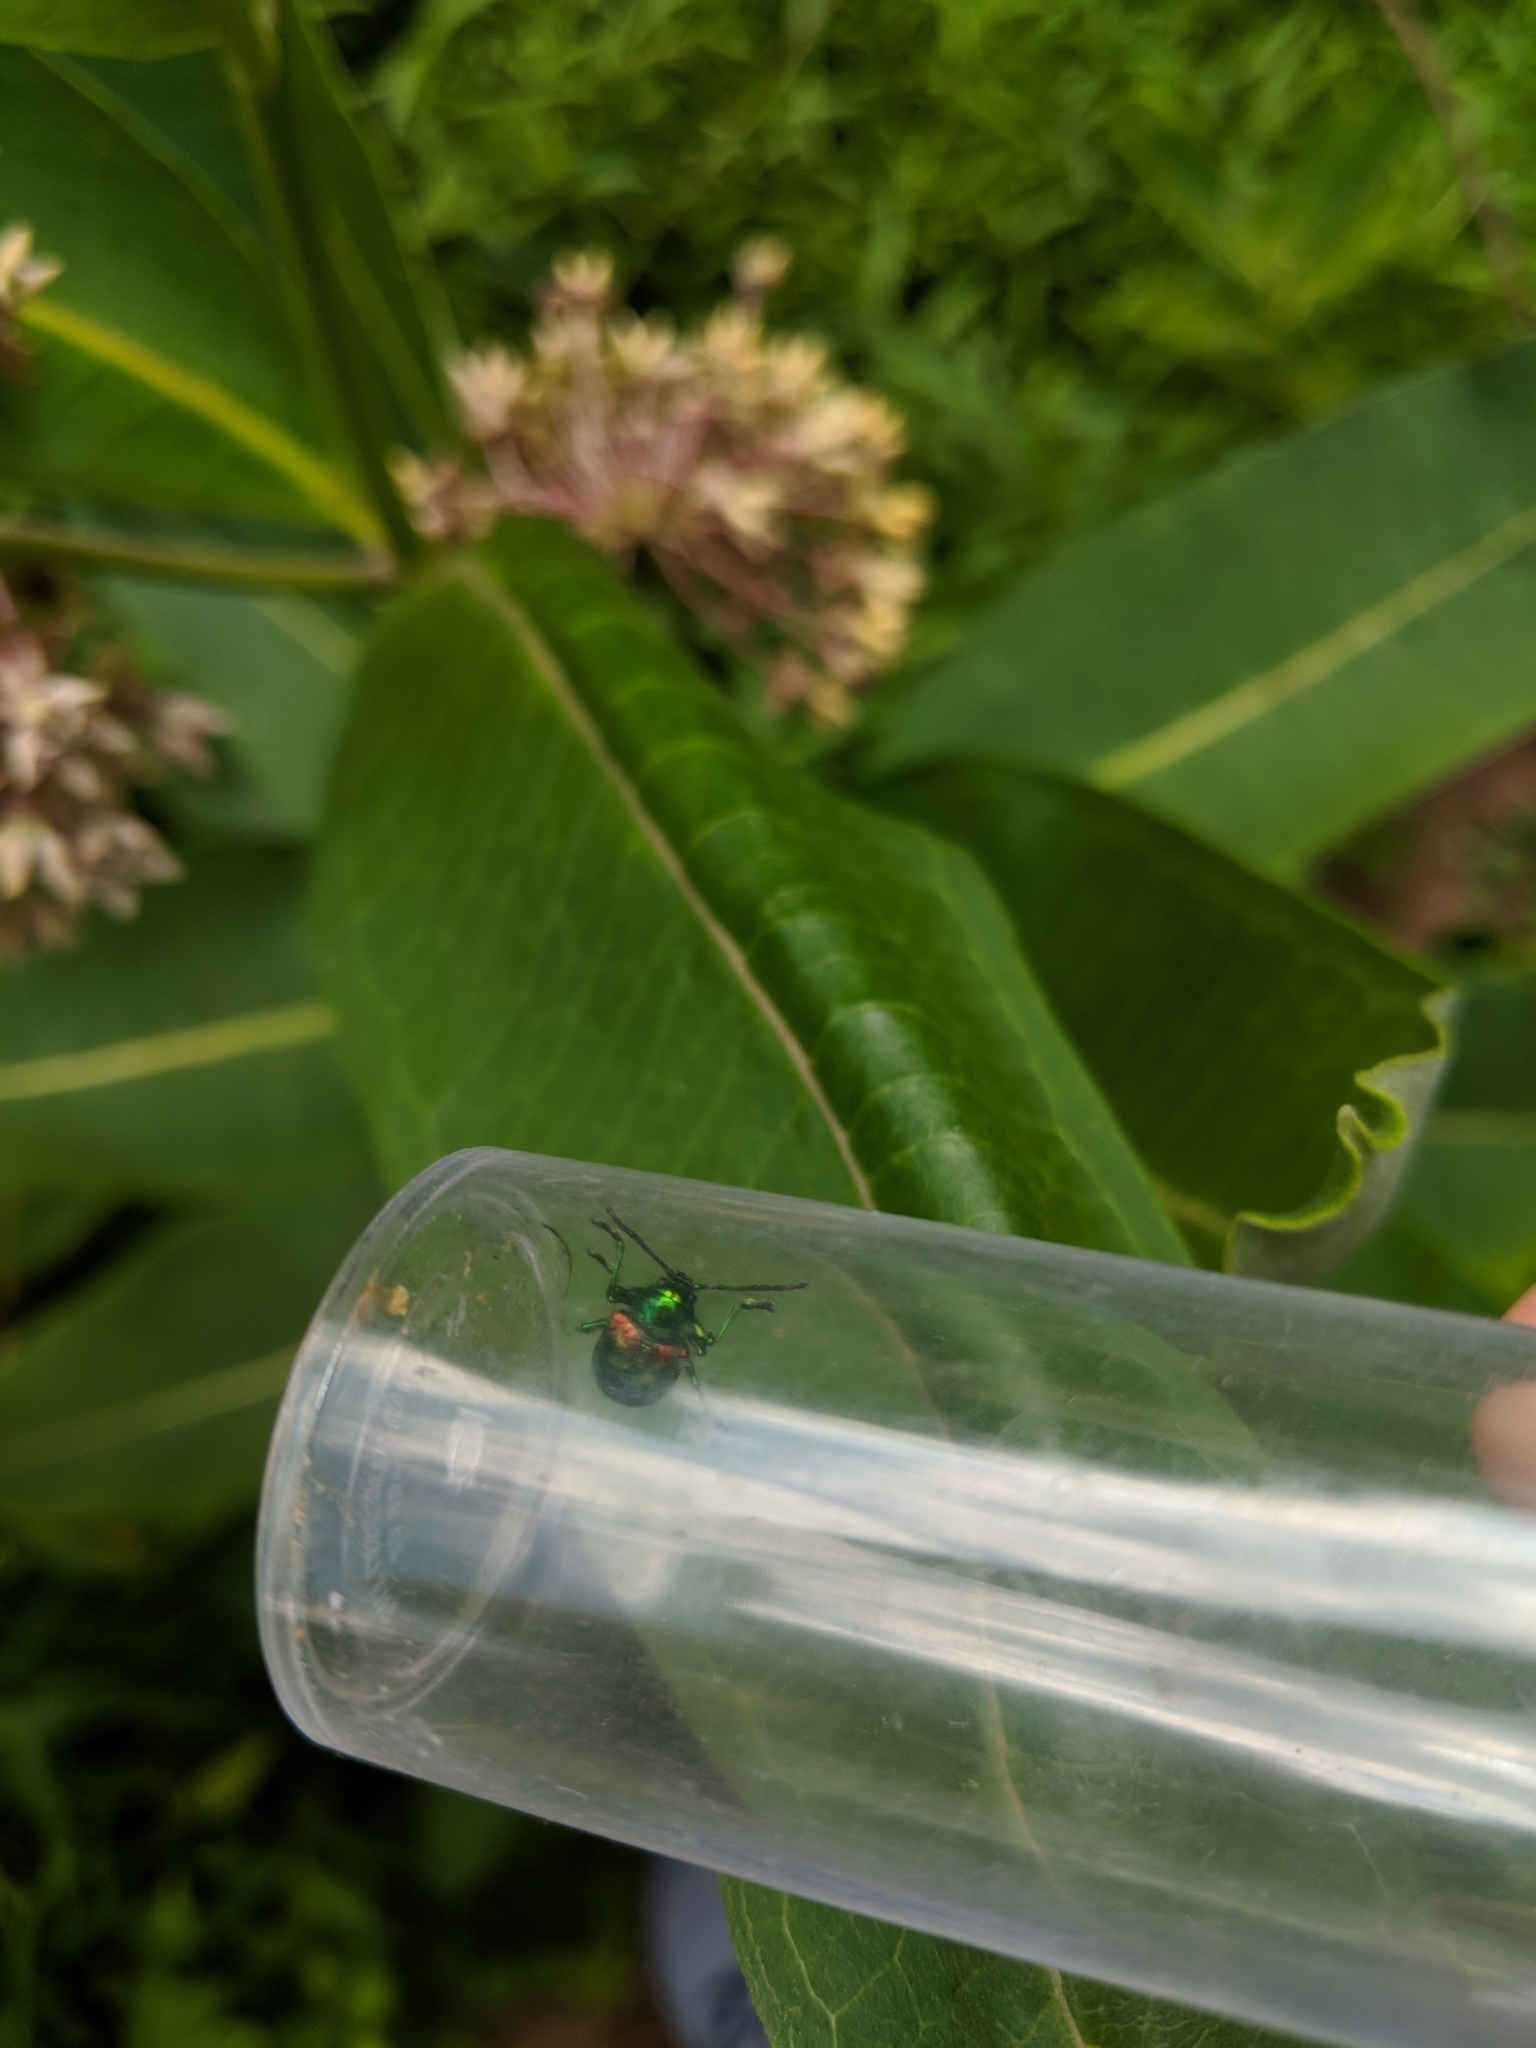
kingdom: Animalia
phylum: Arthropoda
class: Insecta
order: Coleoptera
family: Chrysomelidae
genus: Chrysochus
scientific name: Chrysochus auratus
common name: Dogbane leaf beetle
